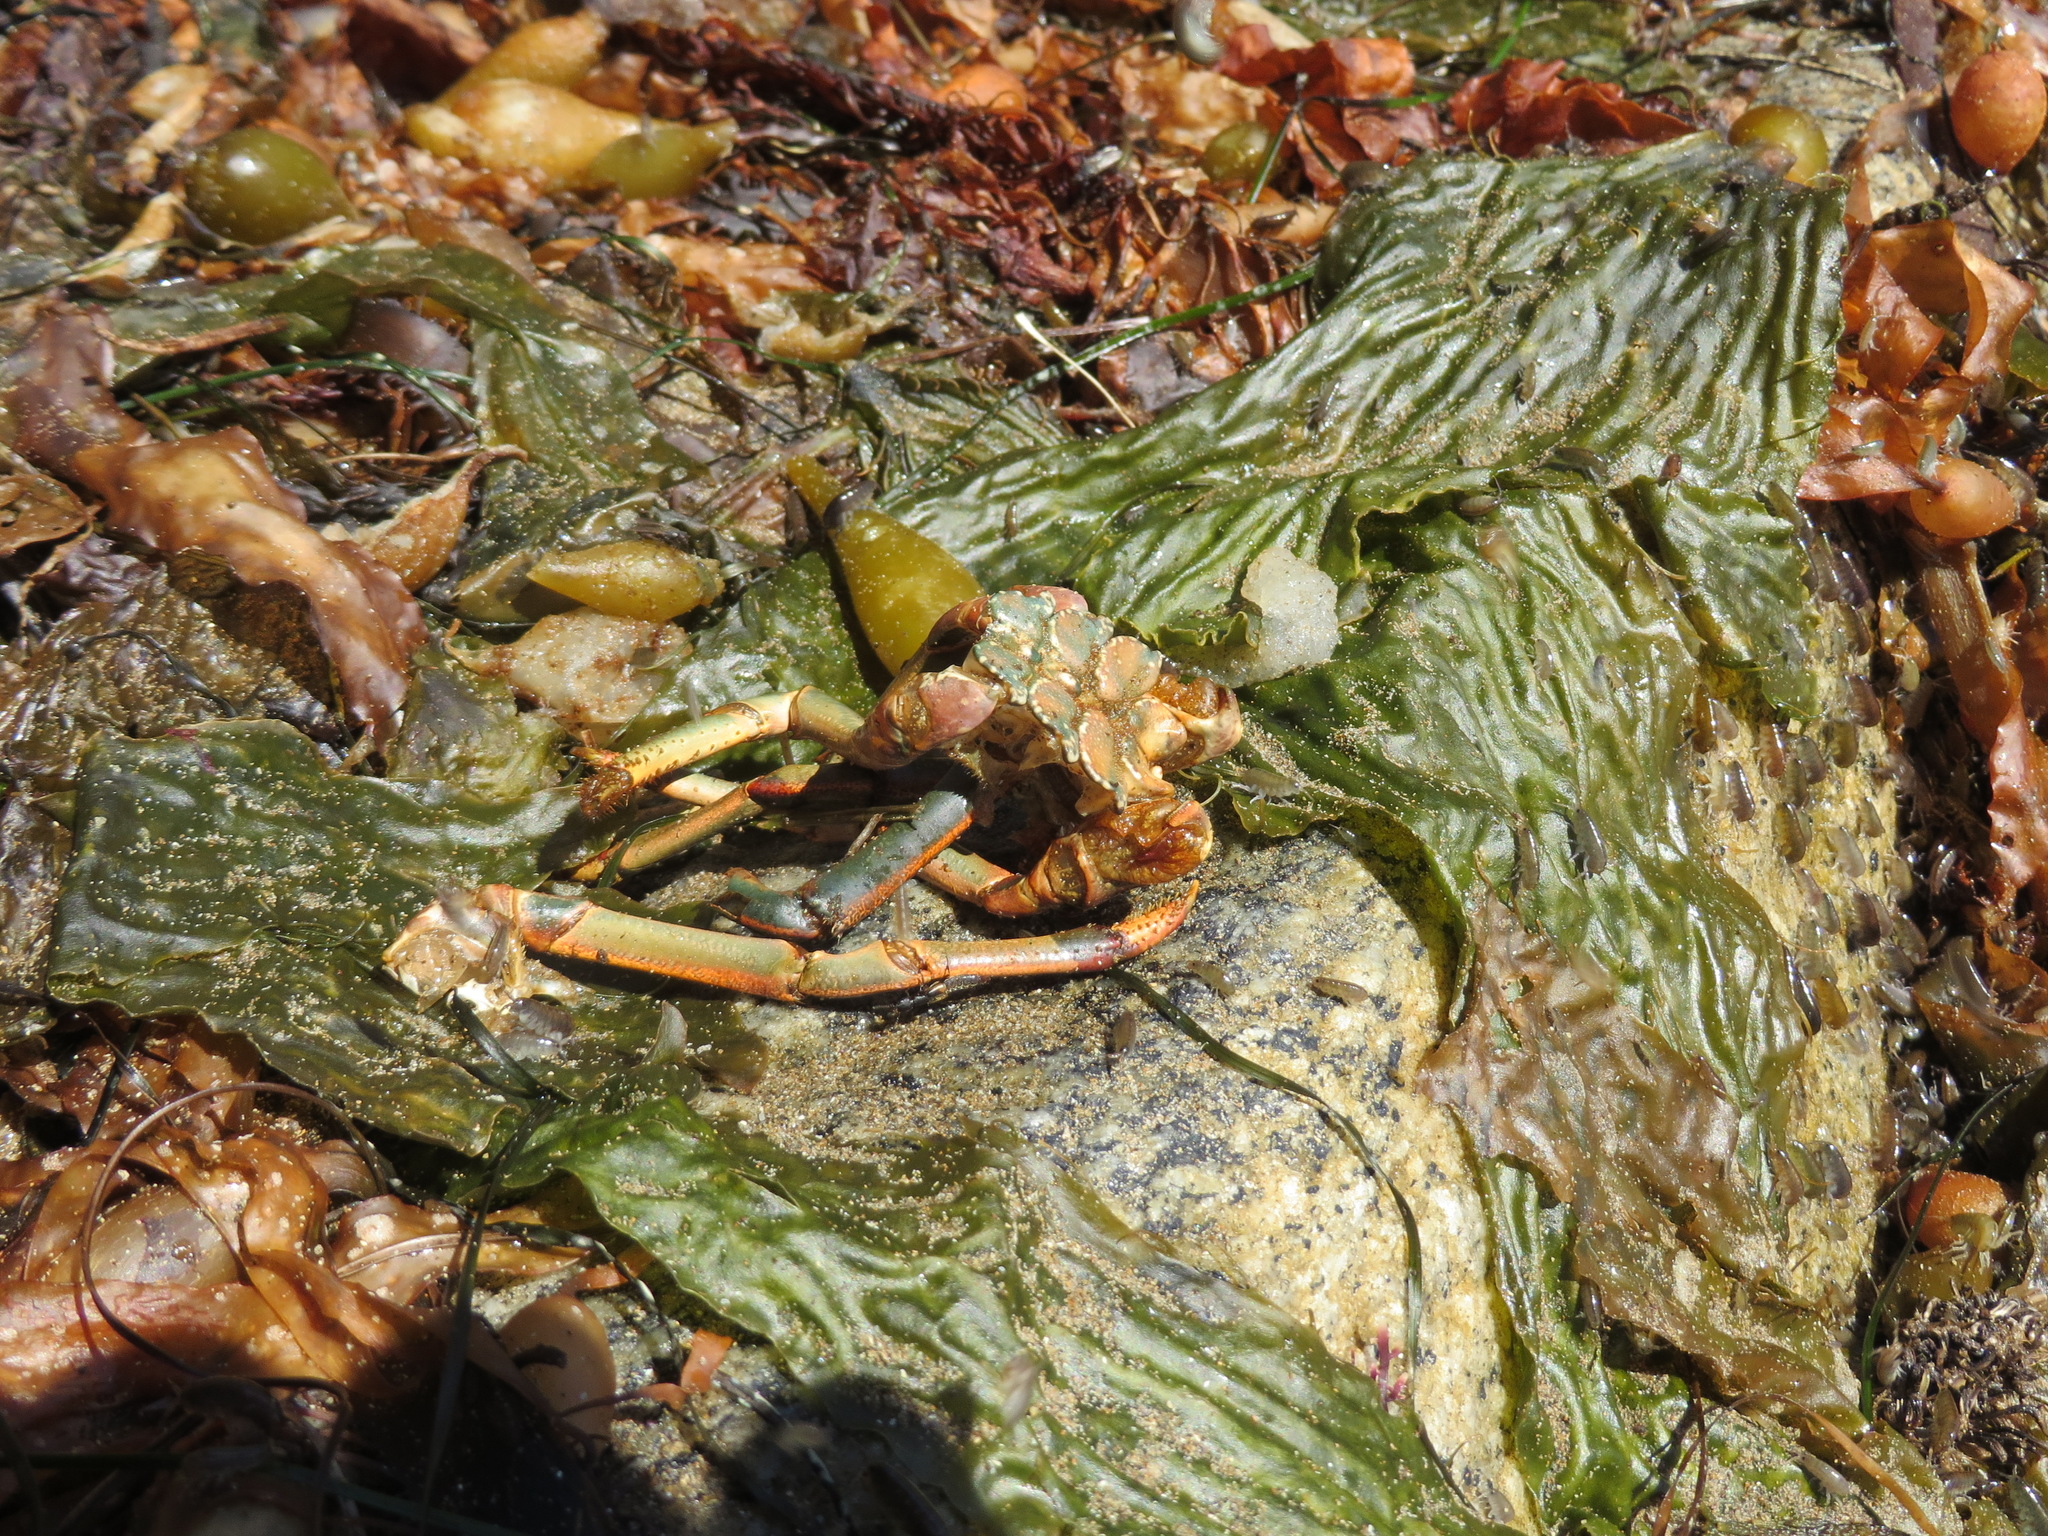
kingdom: Animalia
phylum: Arthropoda
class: Malacostraca
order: Decapoda
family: Palinuridae
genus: Panulirus
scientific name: Panulirus interruptus
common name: California spiny lobster
